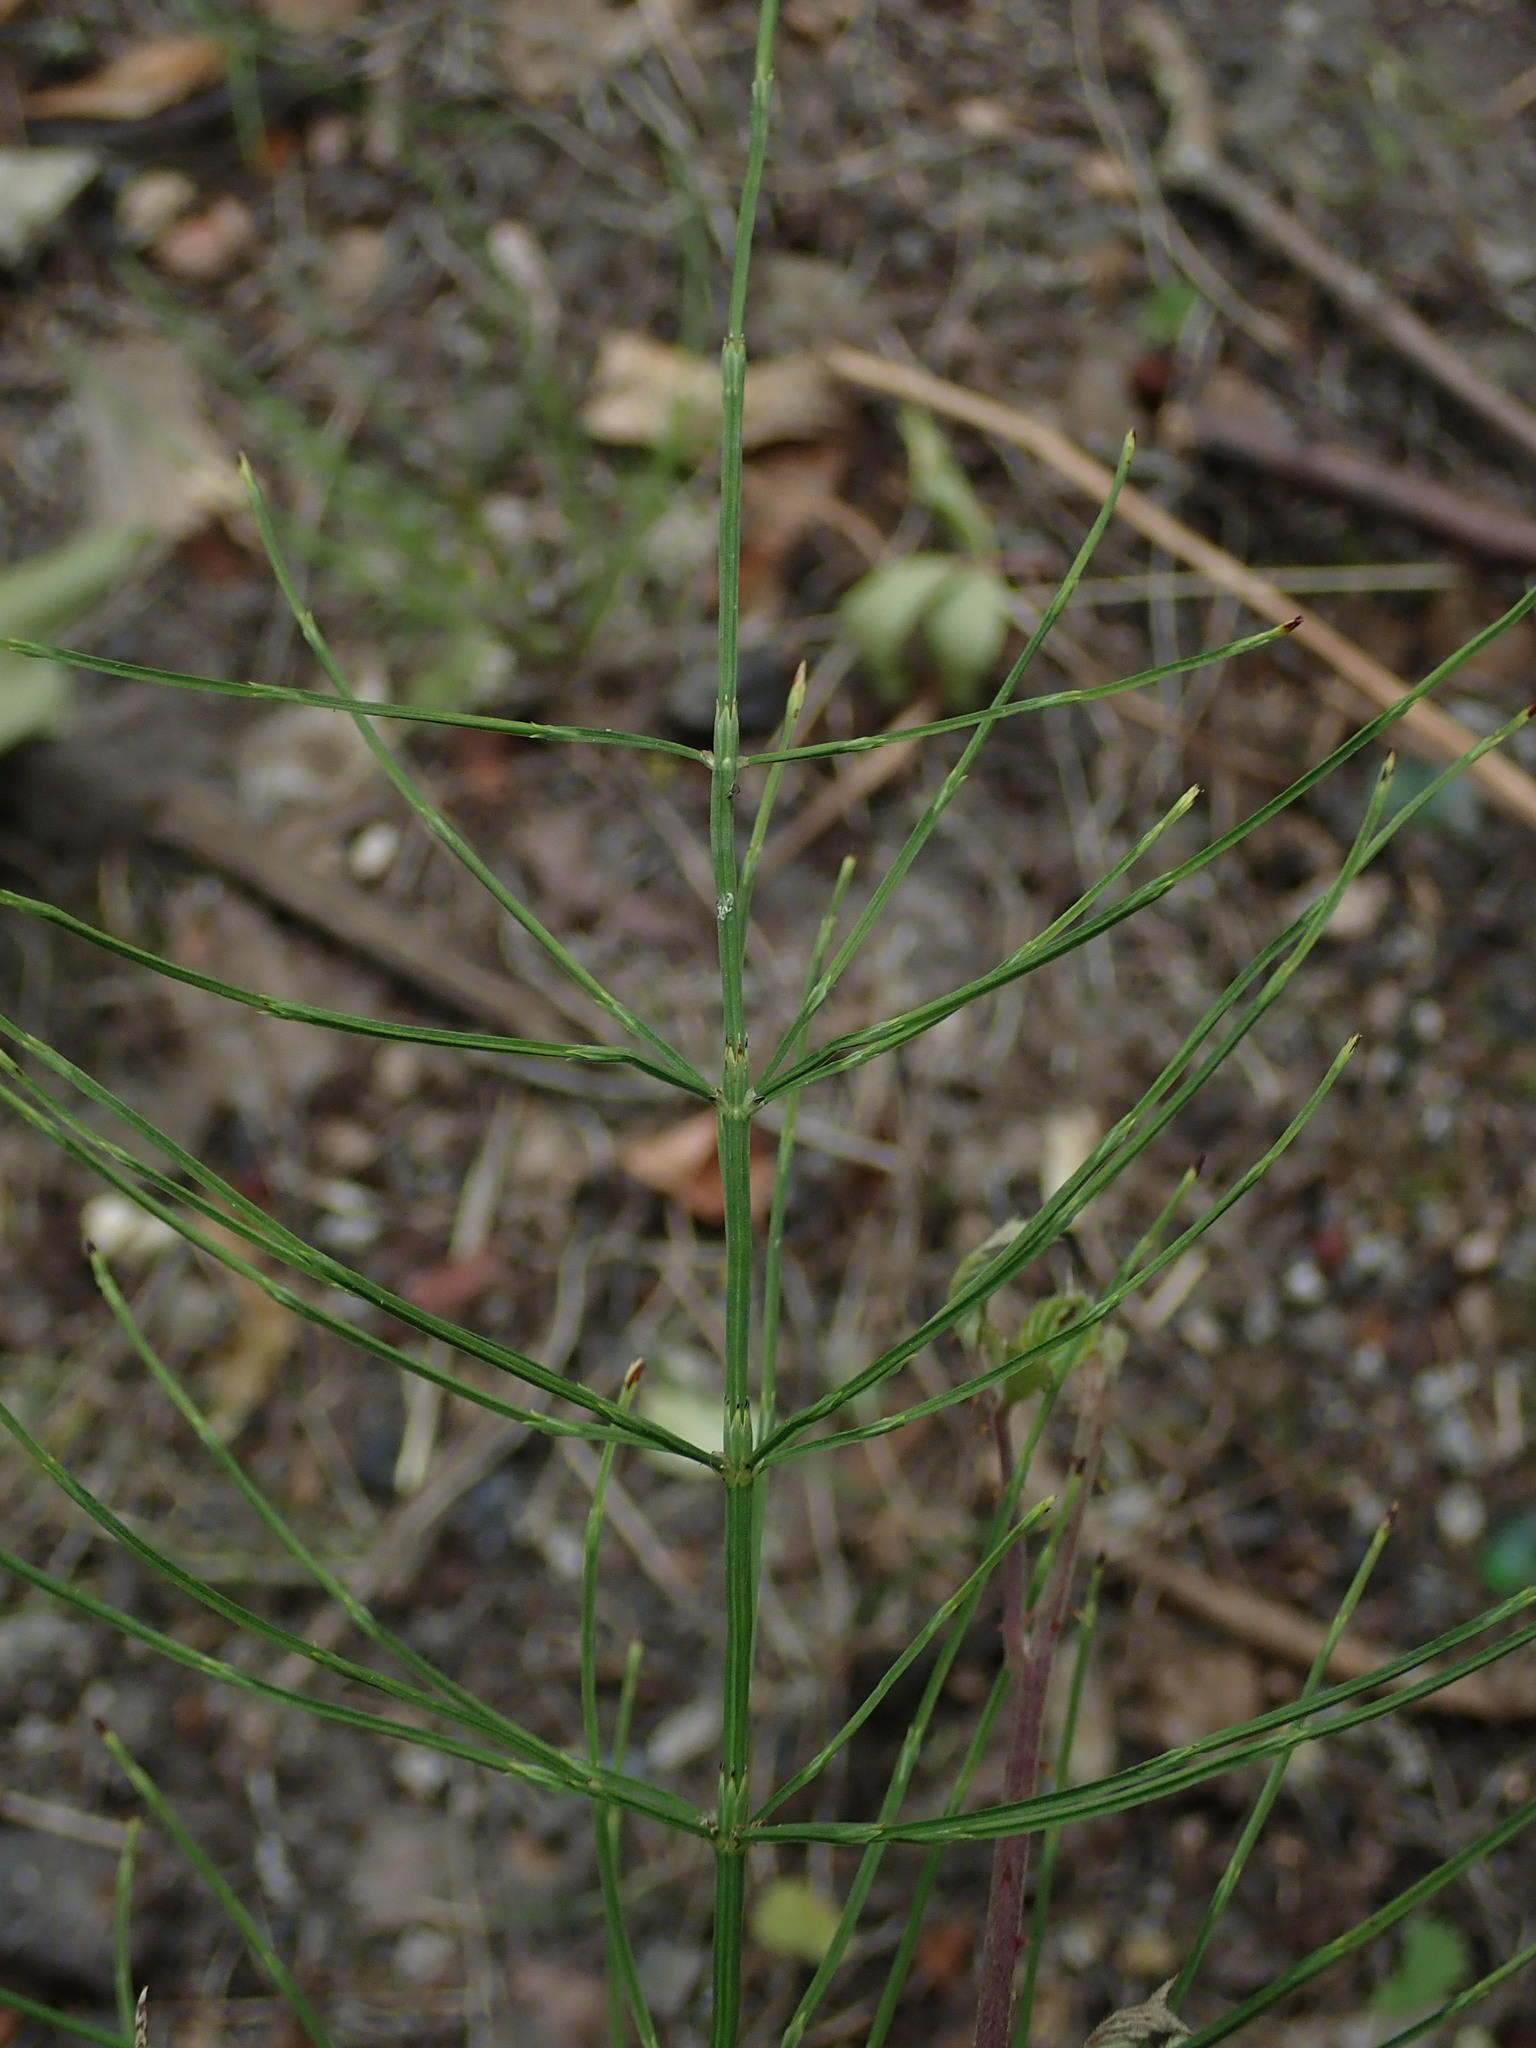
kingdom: Plantae
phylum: Tracheophyta
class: Polypodiopsida
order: Equisetales
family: Equisetaceae
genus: Equisetum
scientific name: Equisetum arvense
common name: Field horsetail
